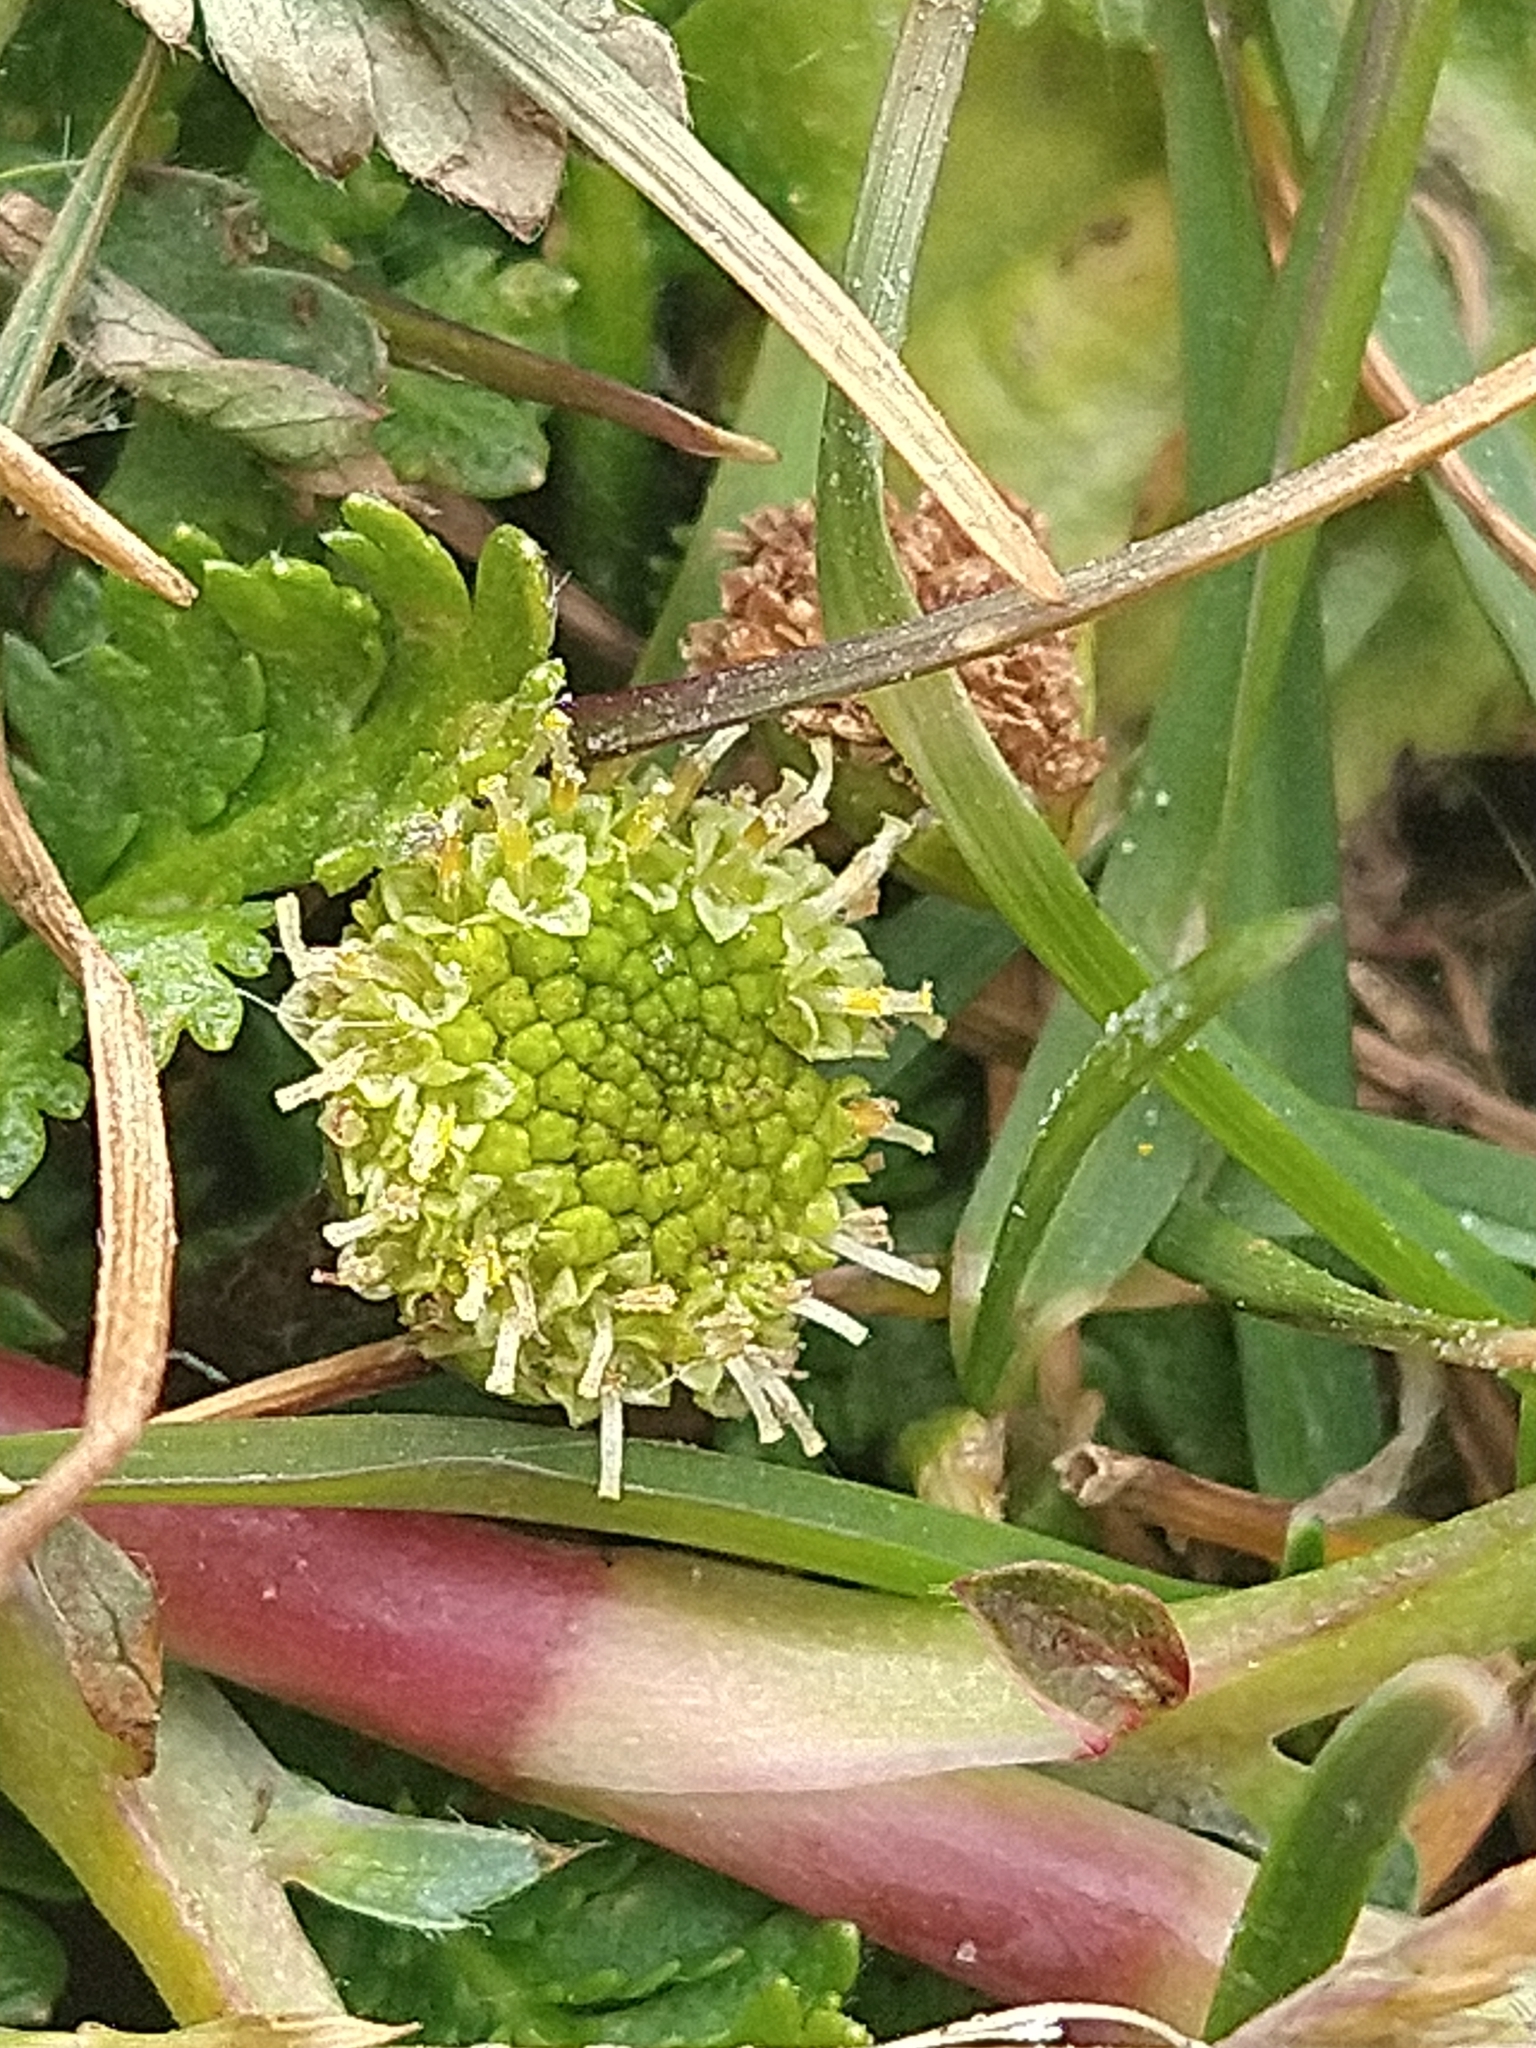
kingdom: Plantae
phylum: Tracheophyta
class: Magnoliopsida
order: Asterales
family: Asteraceae
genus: Leptinella
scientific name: Leptinella scariosa
